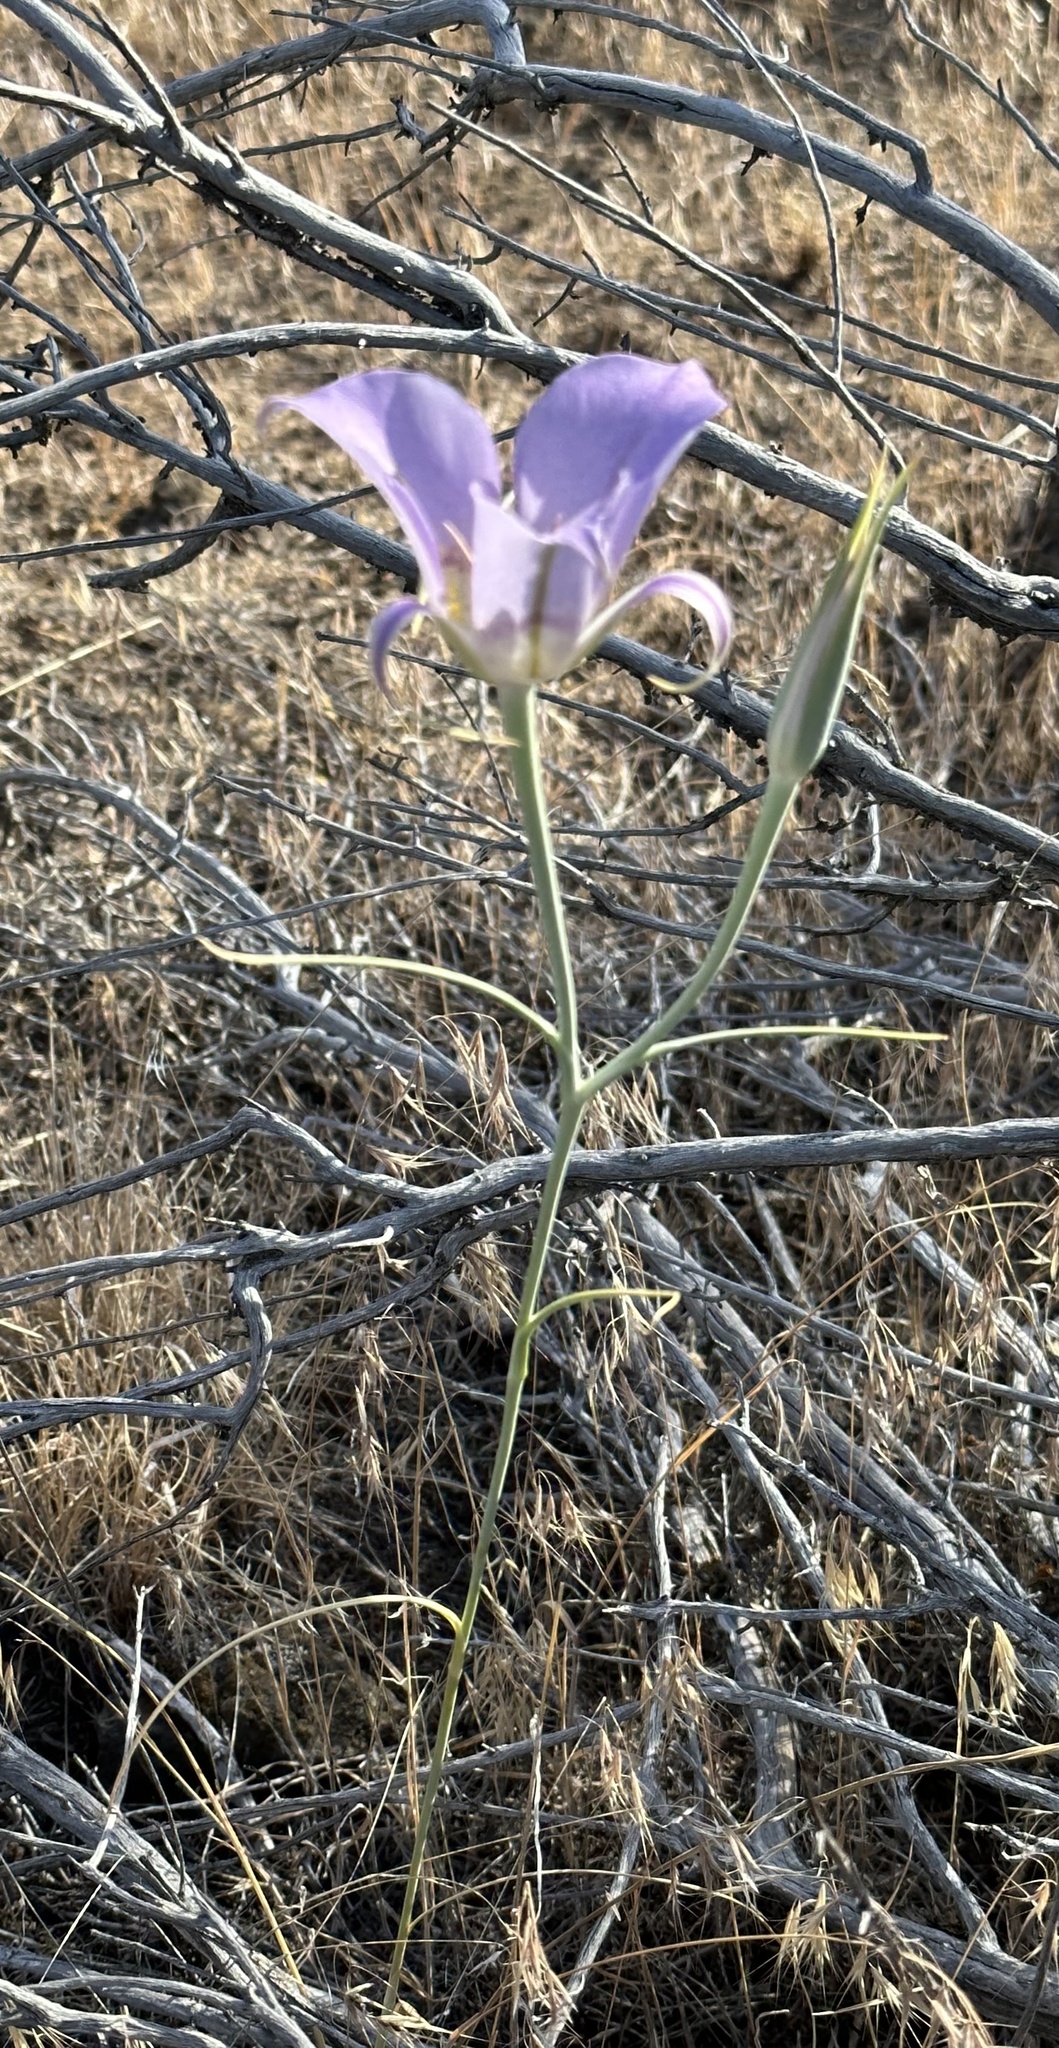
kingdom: Plantae
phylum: Tracheophyta
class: Liliopsida
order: Liliales
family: Liliaceae
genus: Calochortus
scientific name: Calochortus macrocarpus
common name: Green-band mariposa lily
